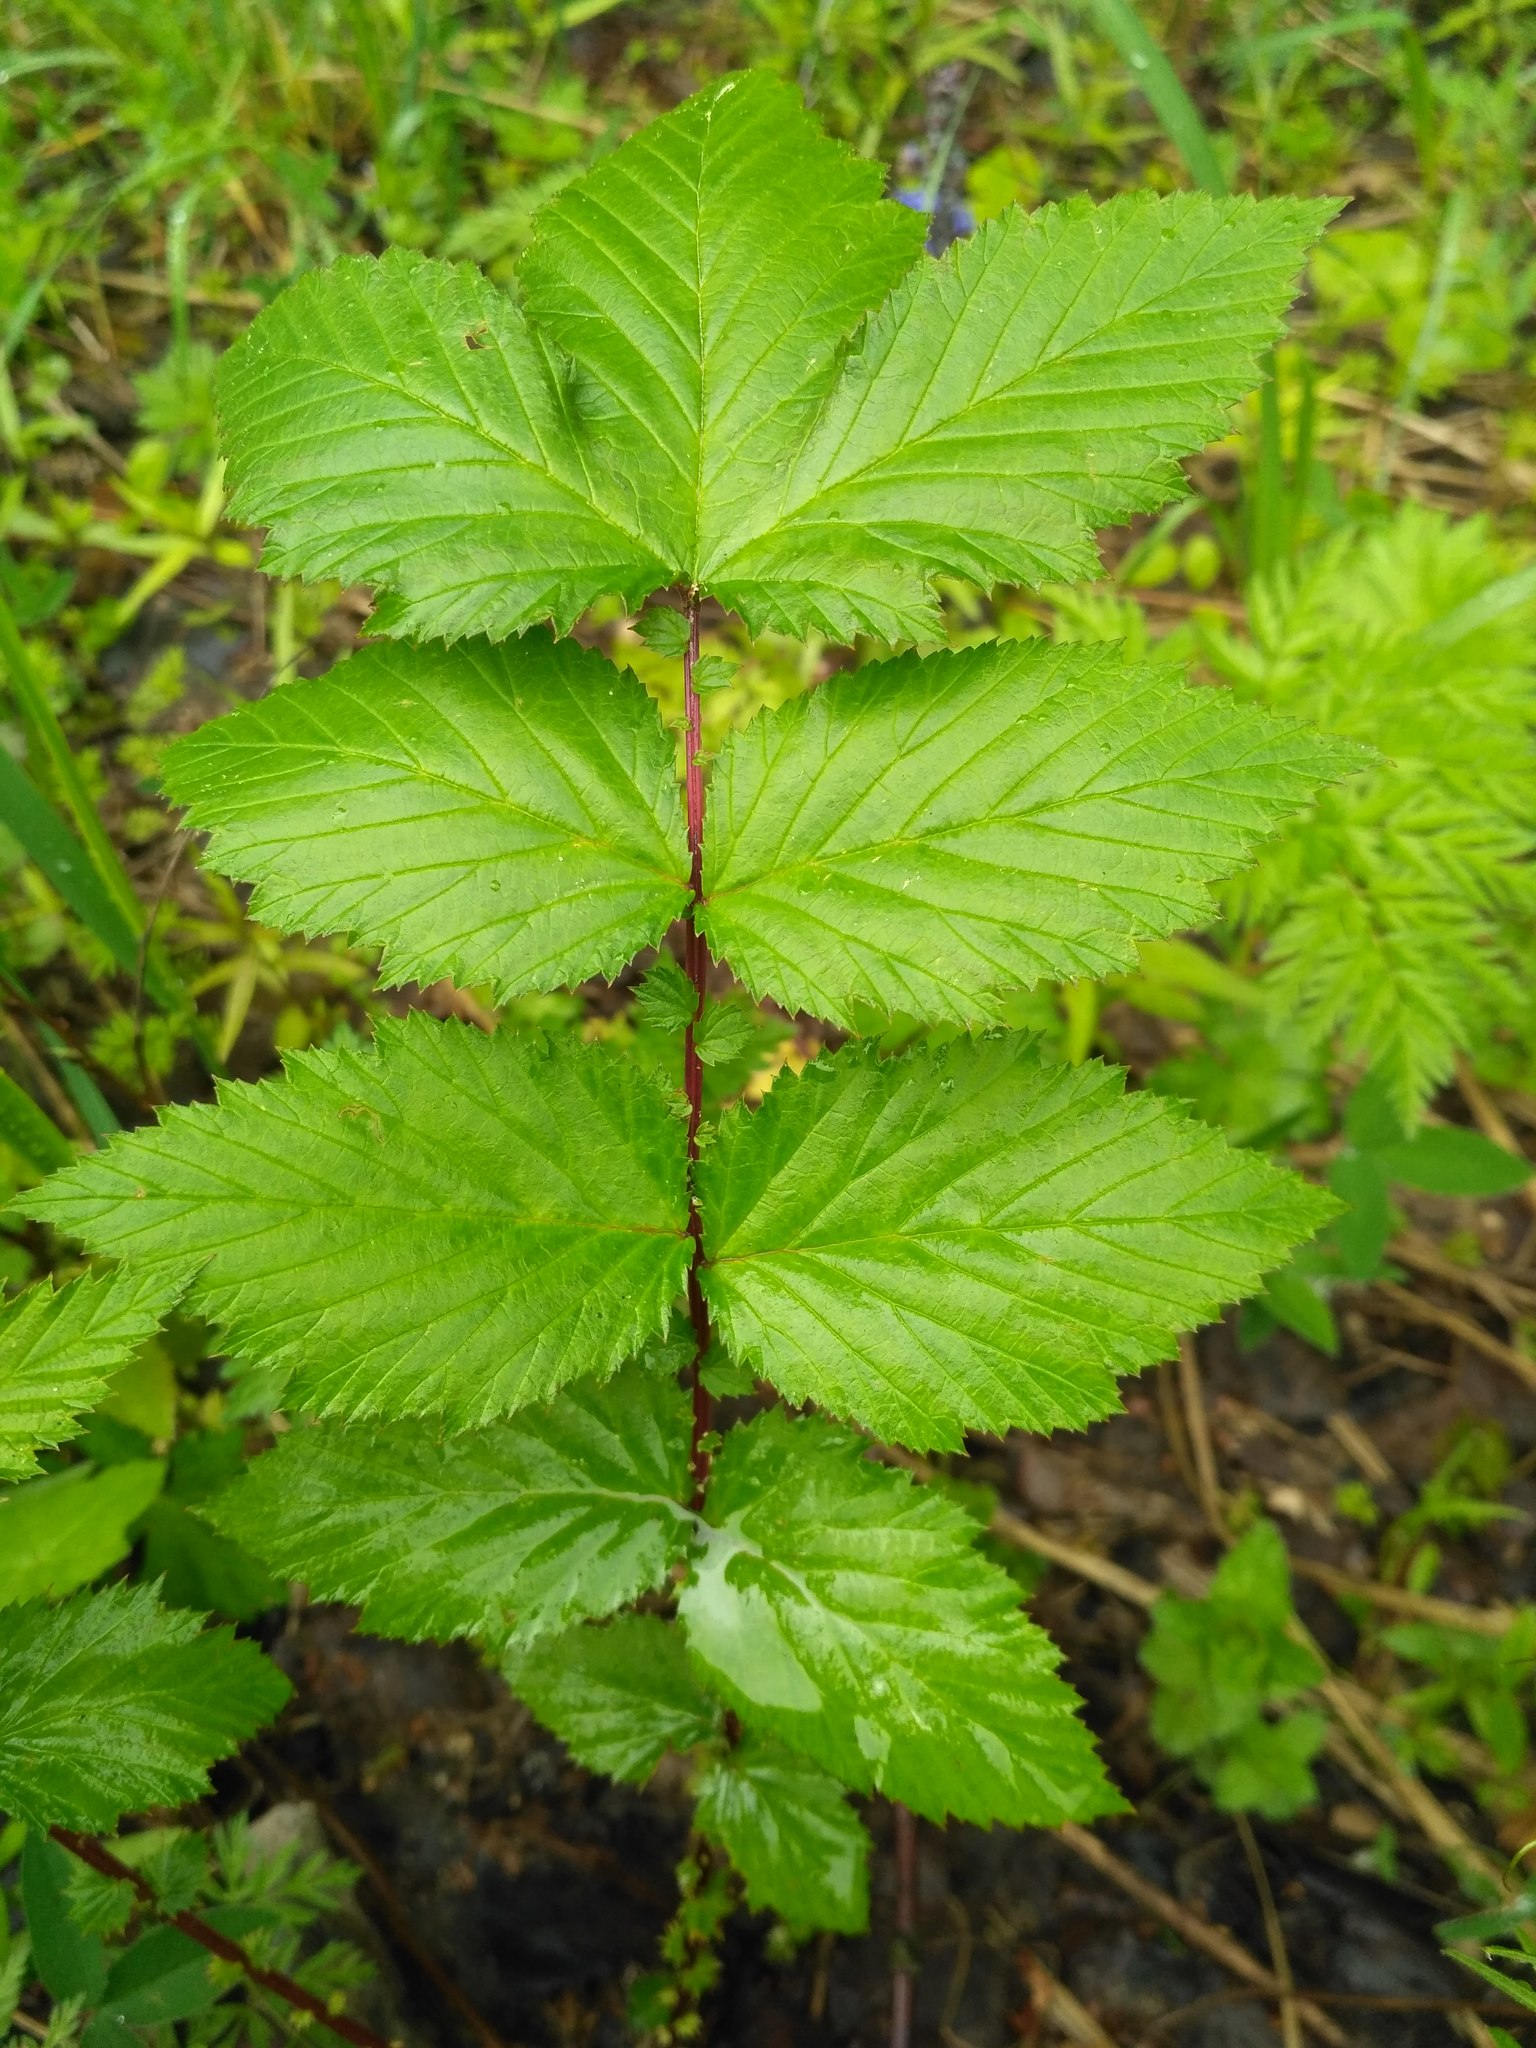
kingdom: Plantae
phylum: Tracheophyta
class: Magnoliopsida
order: Rosales
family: Rosaceae
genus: Filipendula
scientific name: Filipendula ulmaria
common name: Meadowsweet
